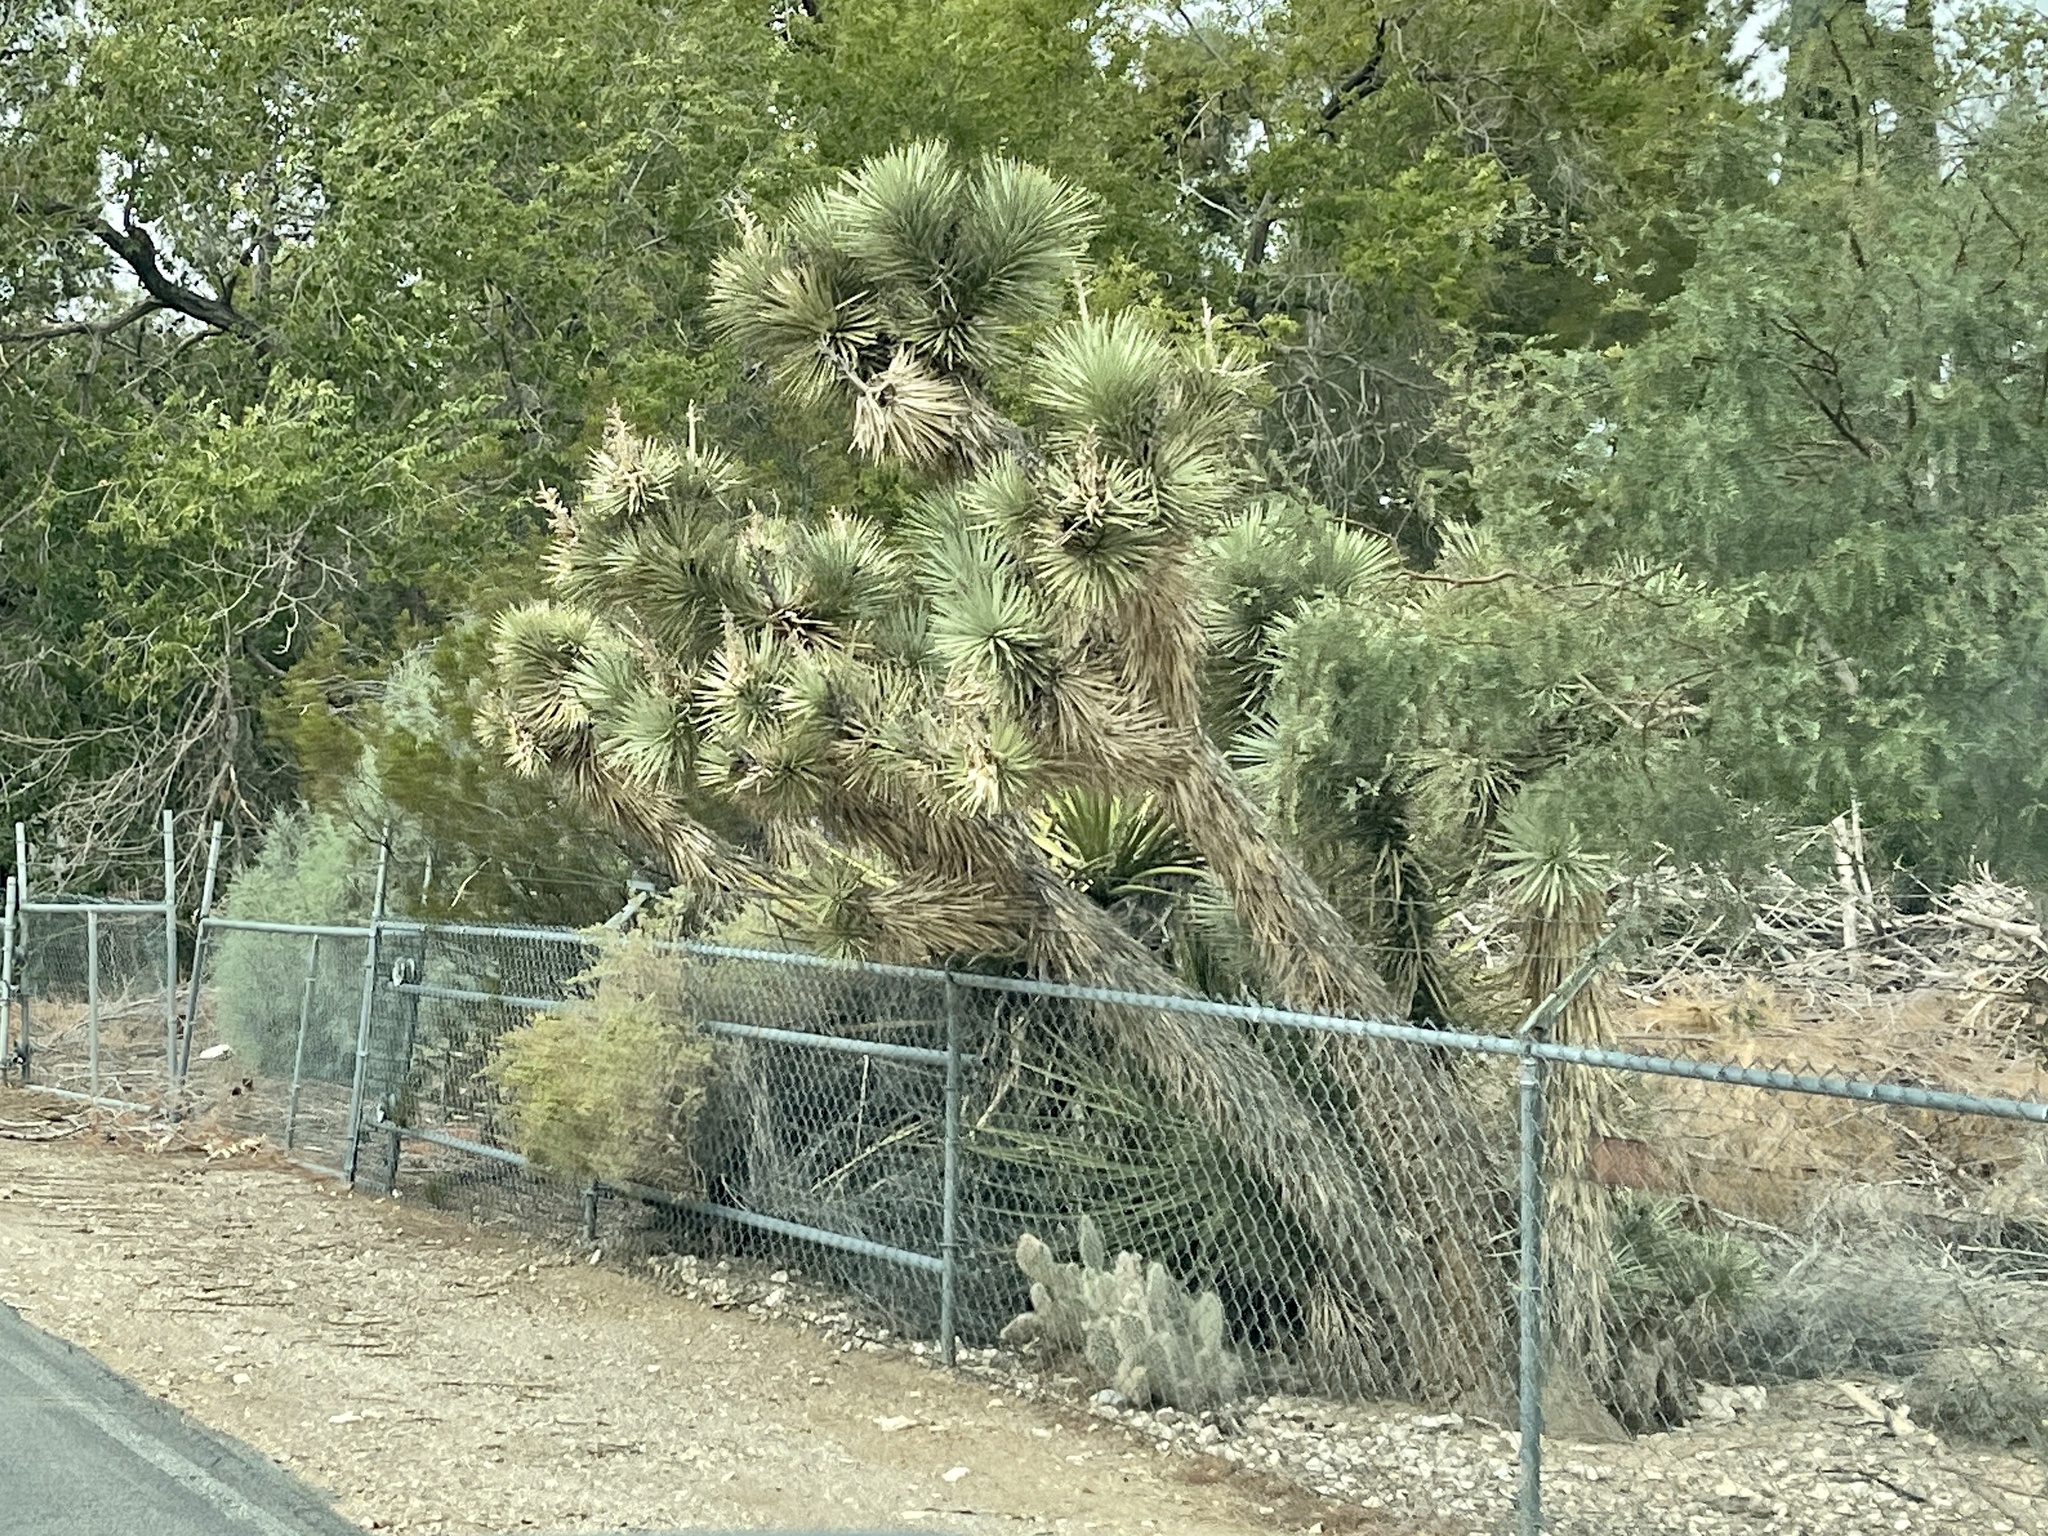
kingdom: Plantae
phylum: Tracheophyta
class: Liliopsida
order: Asparagales
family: Asparagaceae
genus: Yucca
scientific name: Yucca brevifolia
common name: Joshua tree
